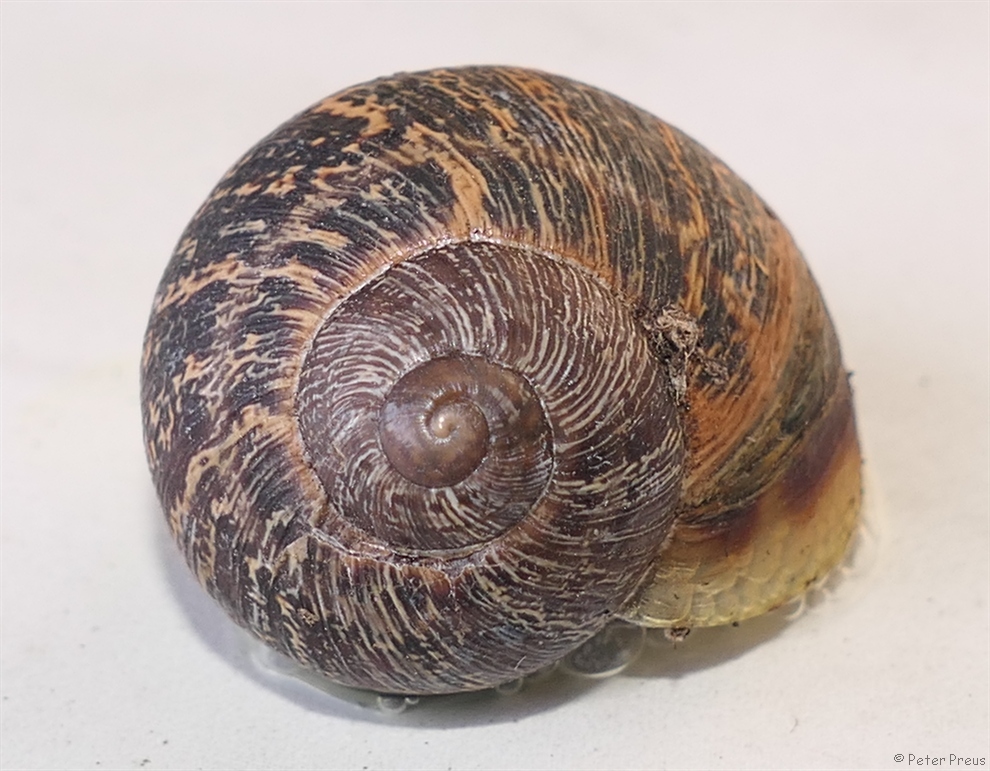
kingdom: Animalia
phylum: Mollusca
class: Gastropoda
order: Stylommatophora
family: Helicidae
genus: Cornu
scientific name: Cornu aspersum
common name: Brown garden snail
